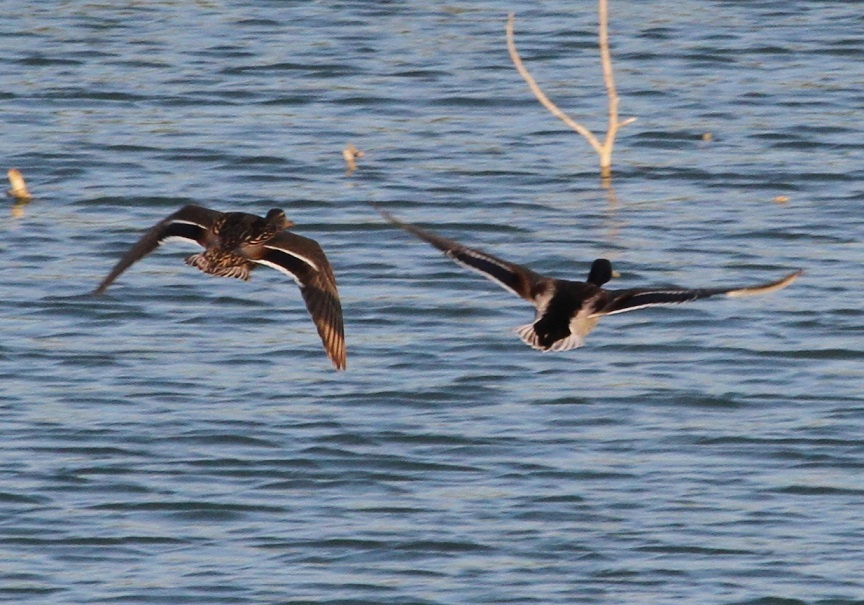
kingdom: Animalia
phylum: Chordata
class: Aves
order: Anseriformes
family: Anatidae
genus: Anas
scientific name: Anas platyrhynchos
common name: Mallard
